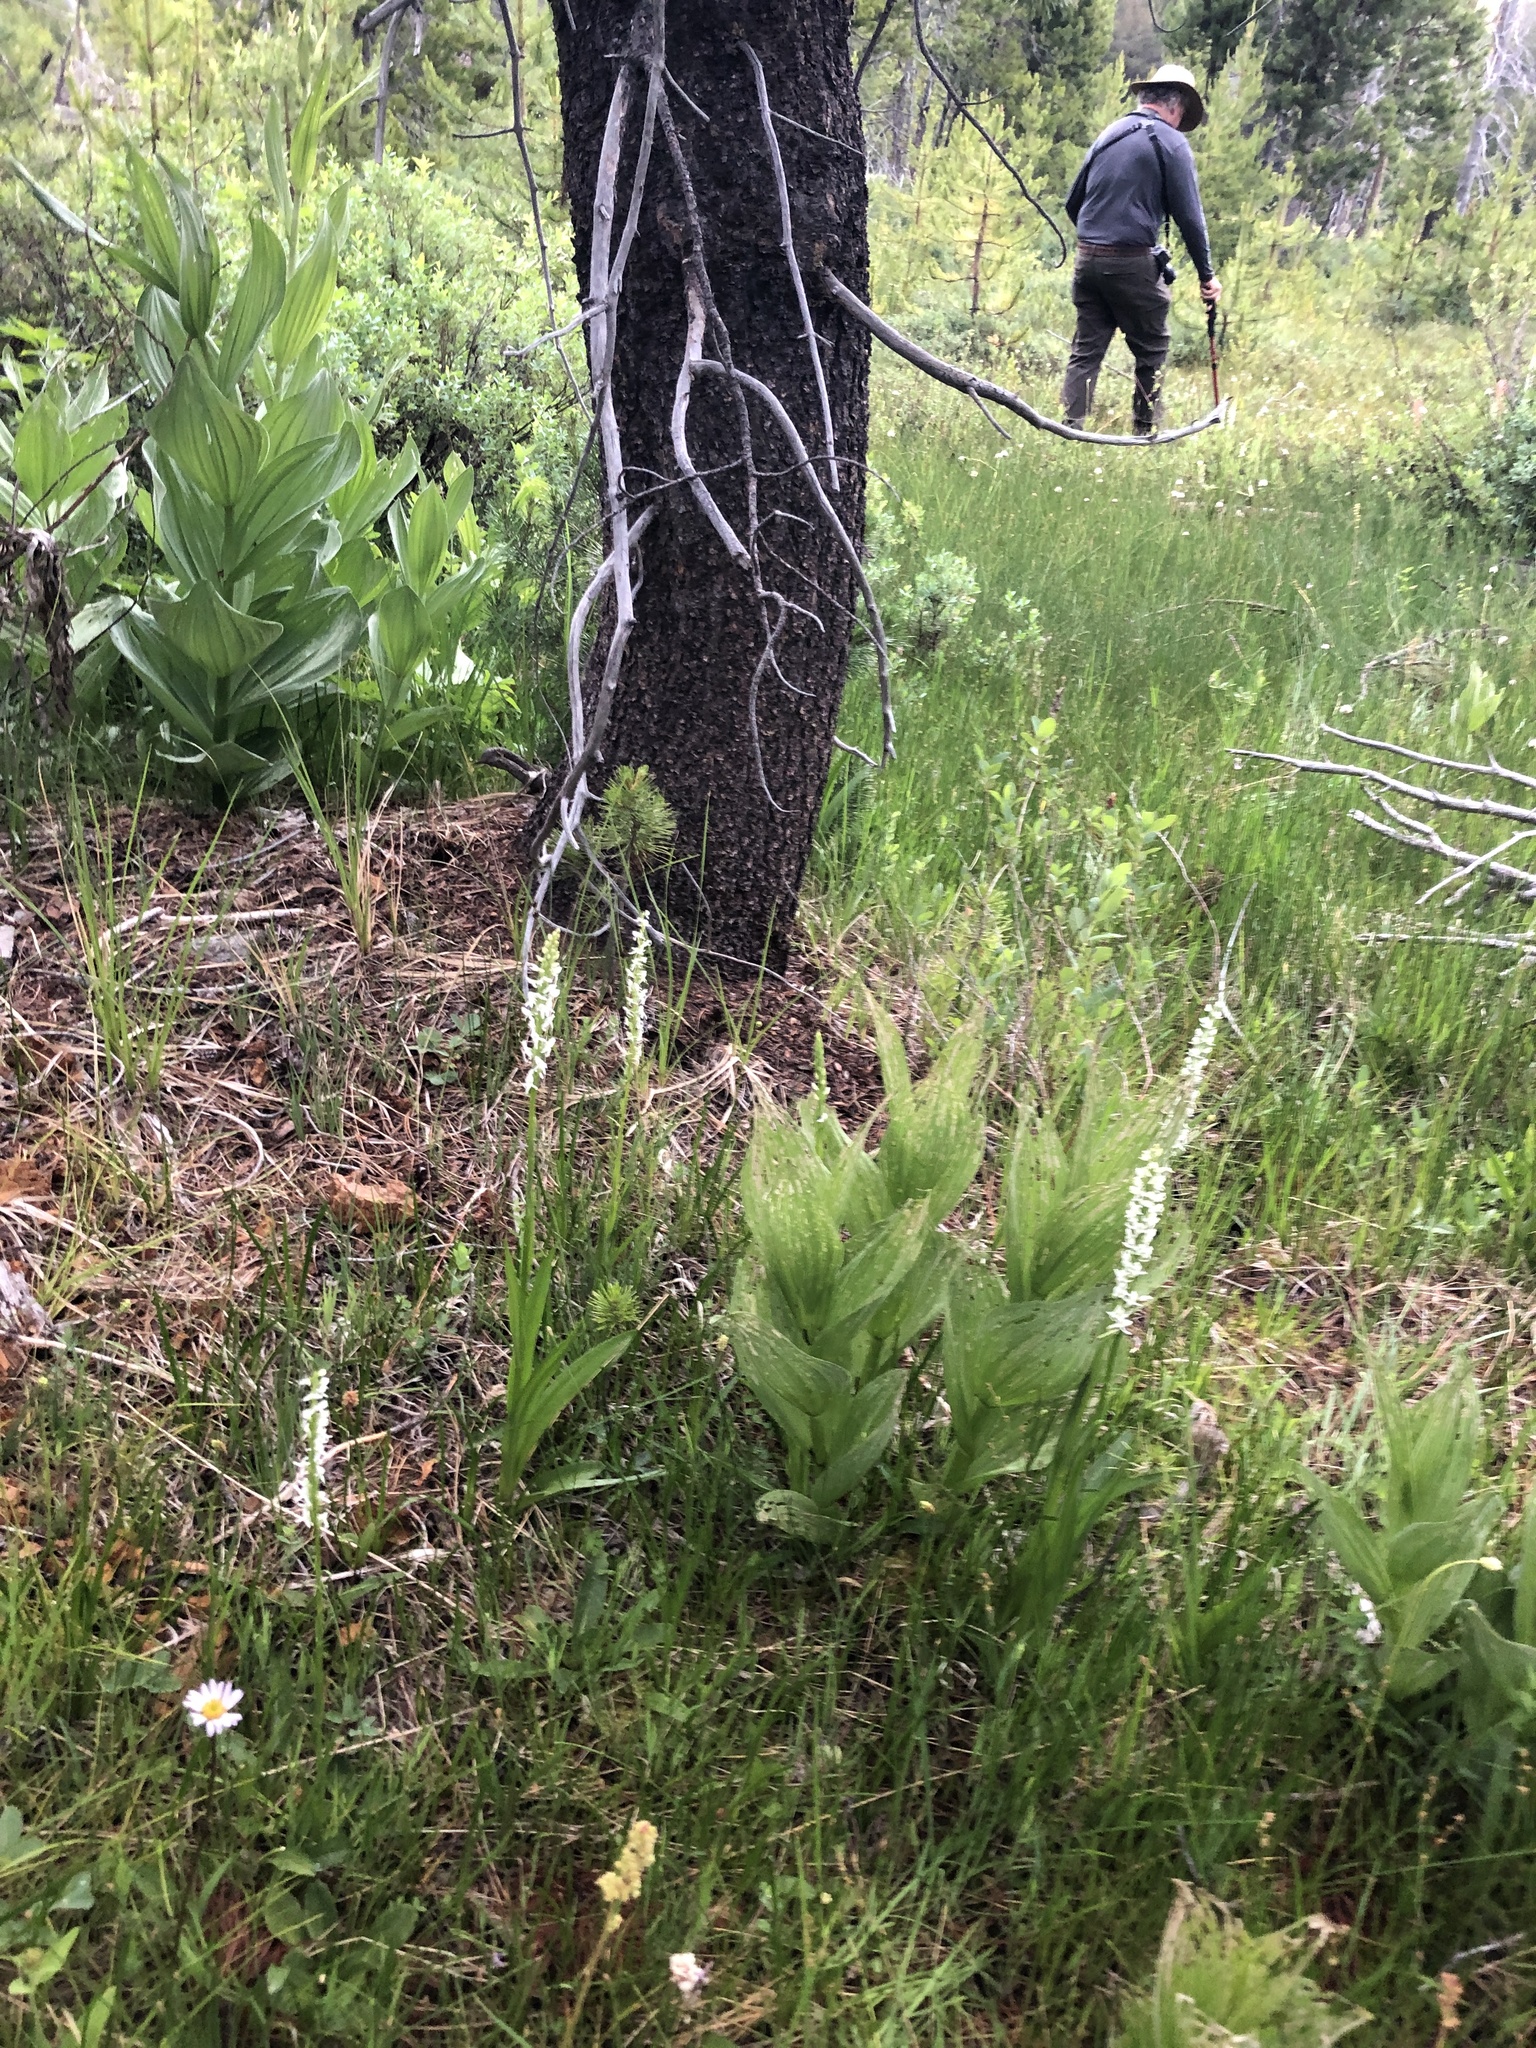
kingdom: Plantae
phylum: Tracheophyta
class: Liliopsida
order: Asparagales
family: Orchidaceae
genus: Platanthera
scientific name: Platanthera dilatata
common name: Bog candles
